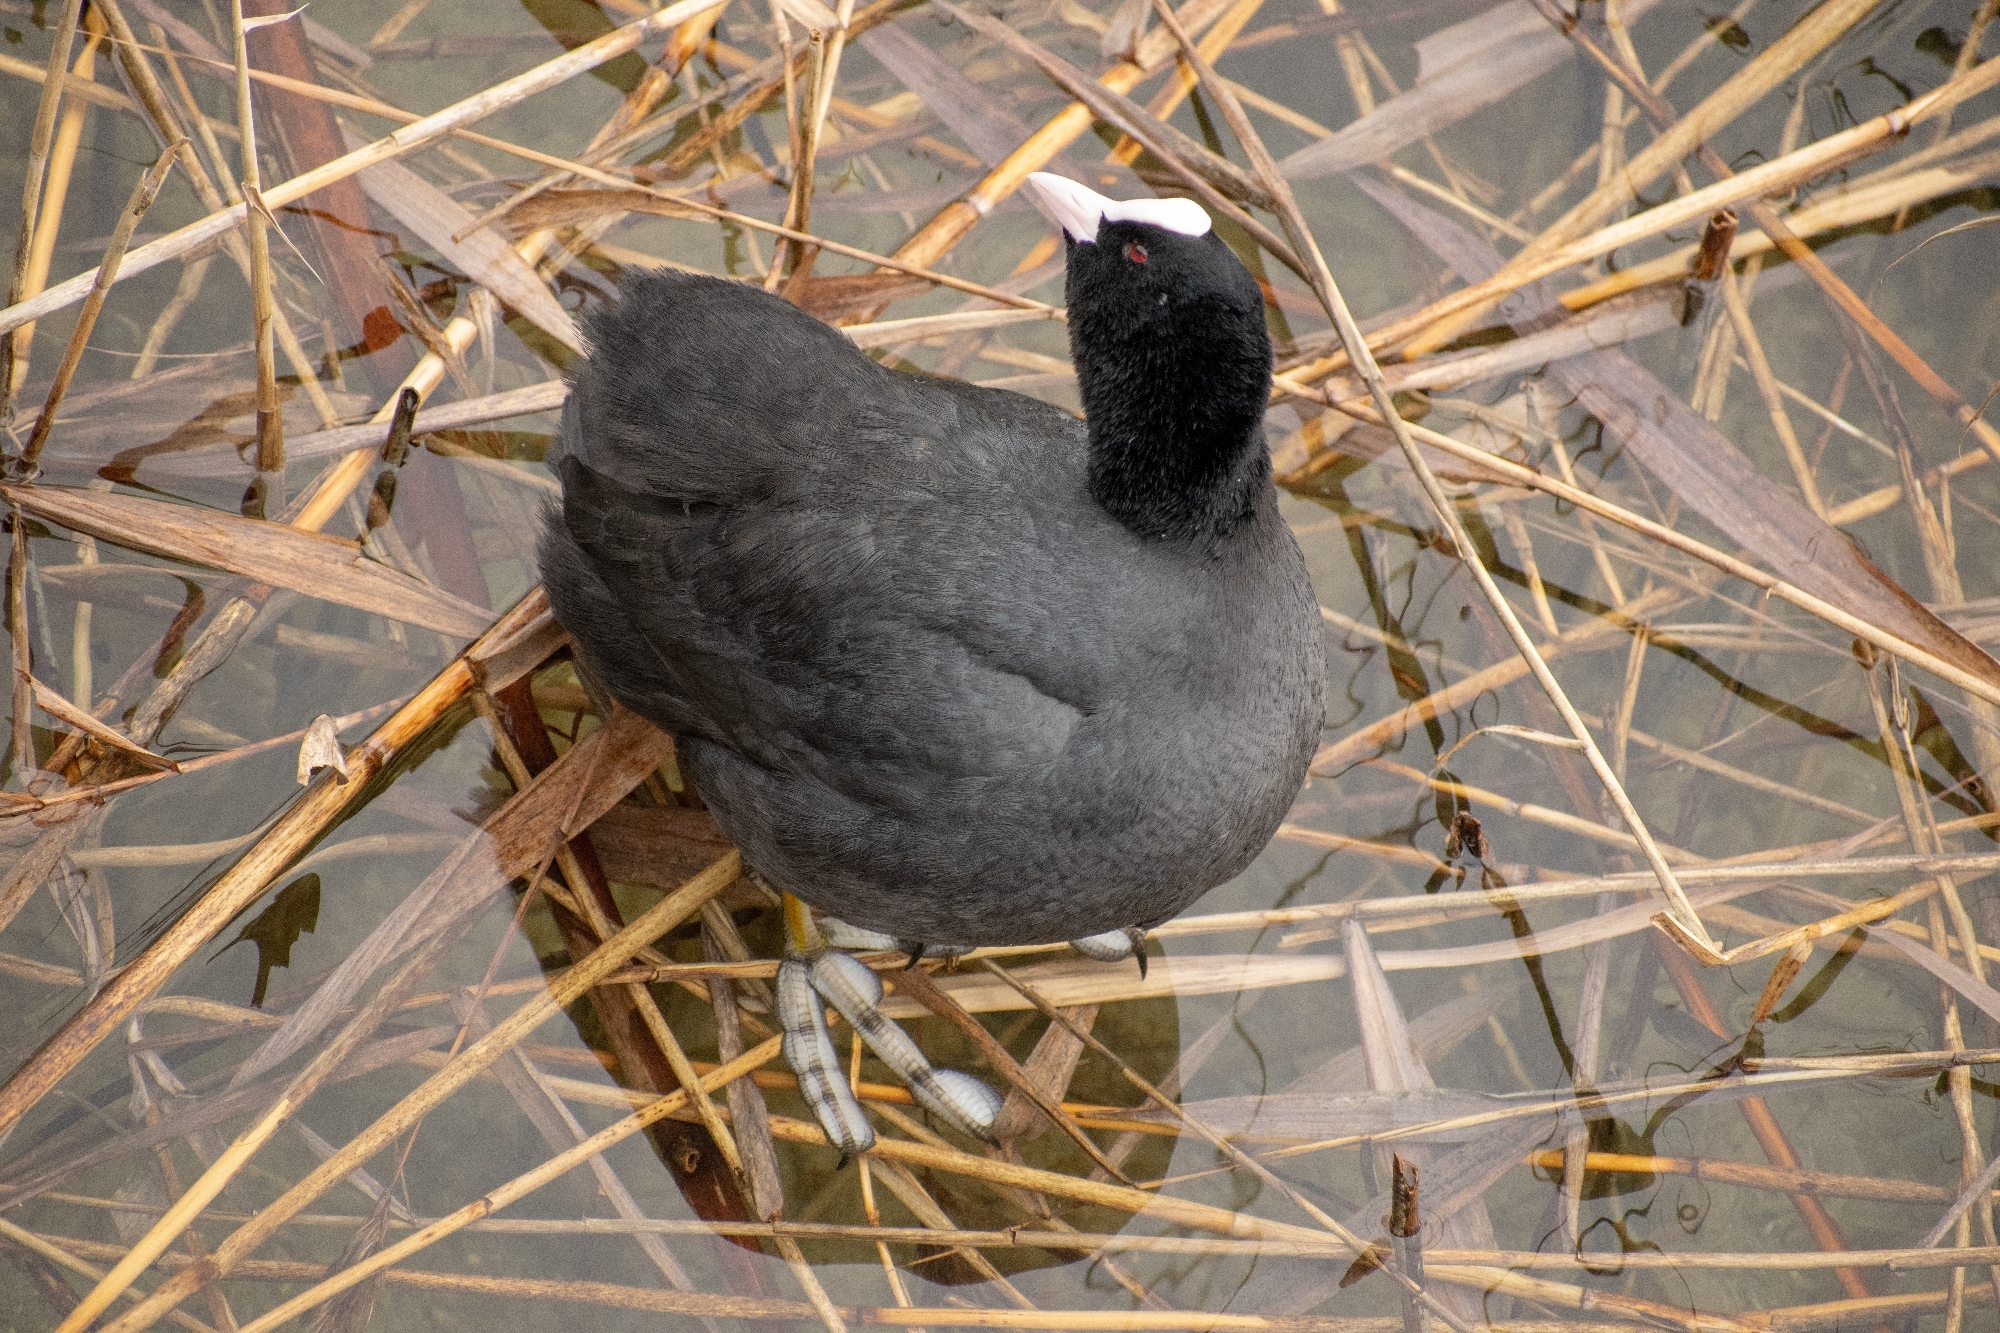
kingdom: Animalia
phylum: Chordata
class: Aves
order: Gruiformes
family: Rallidae
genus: Fulica
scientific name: Fulica atra
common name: Eurasian coot
